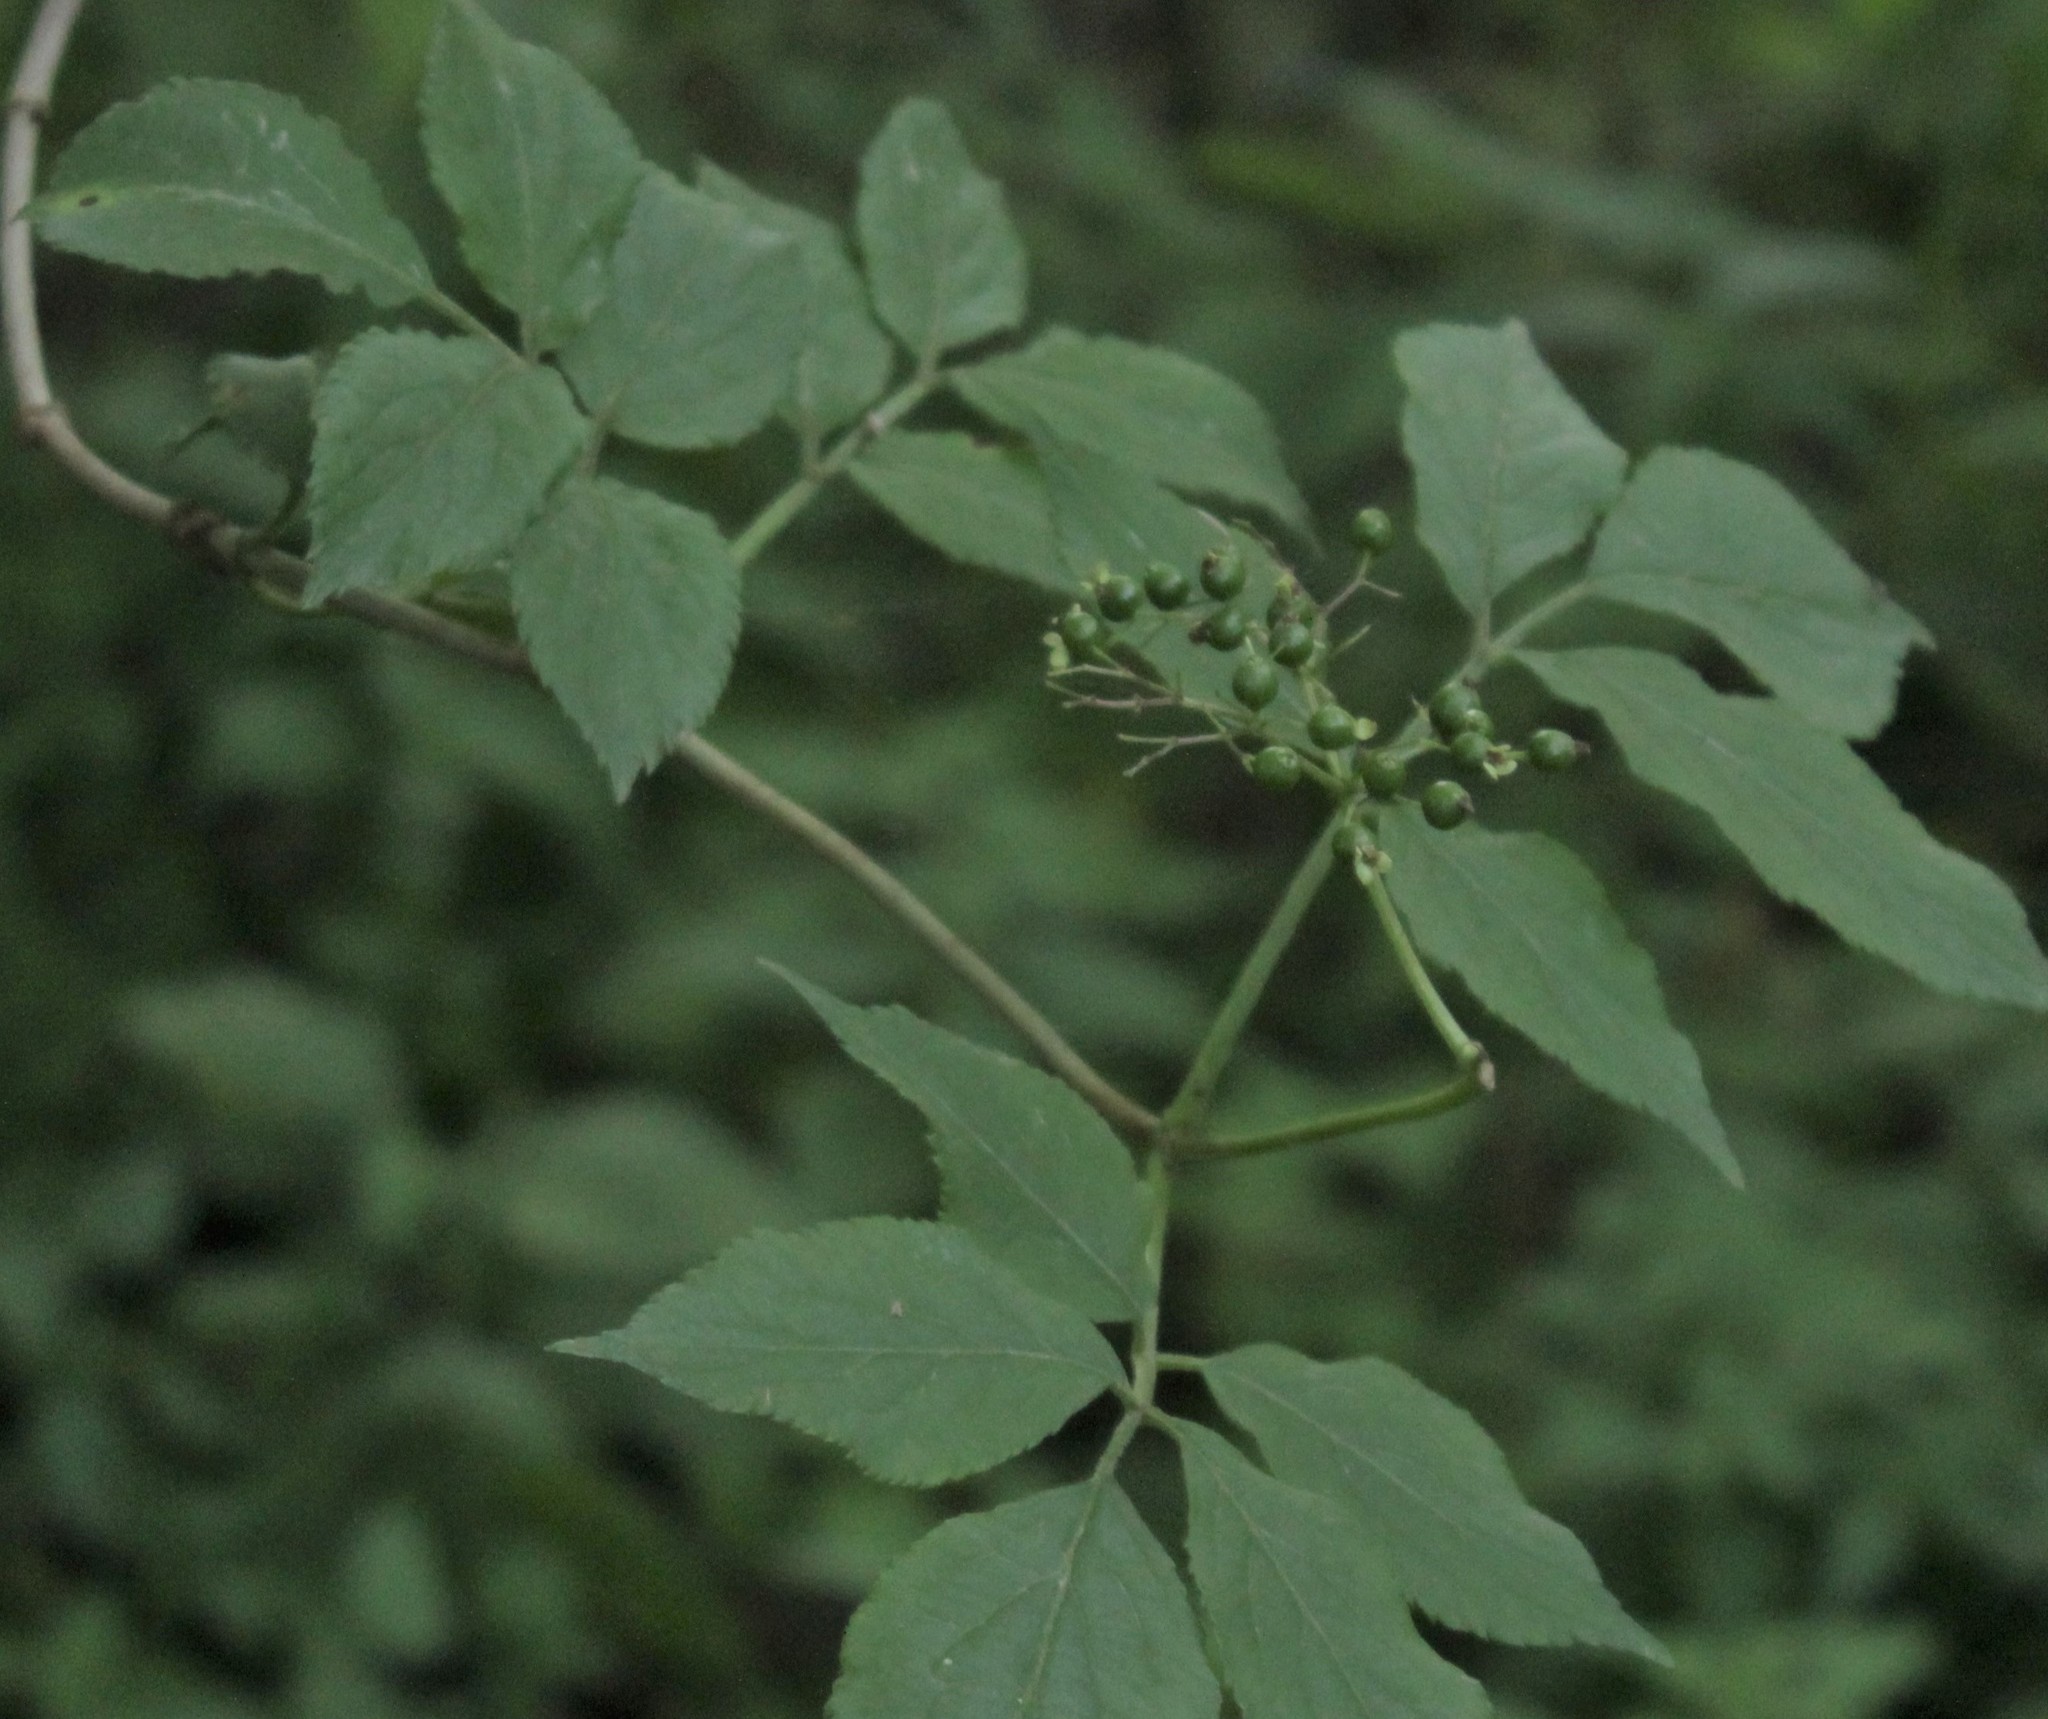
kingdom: Plantae
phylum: Tracheophyta
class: Magnoliopsida
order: Dipsacales
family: Viburnaceae
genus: Sambucus
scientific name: Sambucus nigra
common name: Elder
